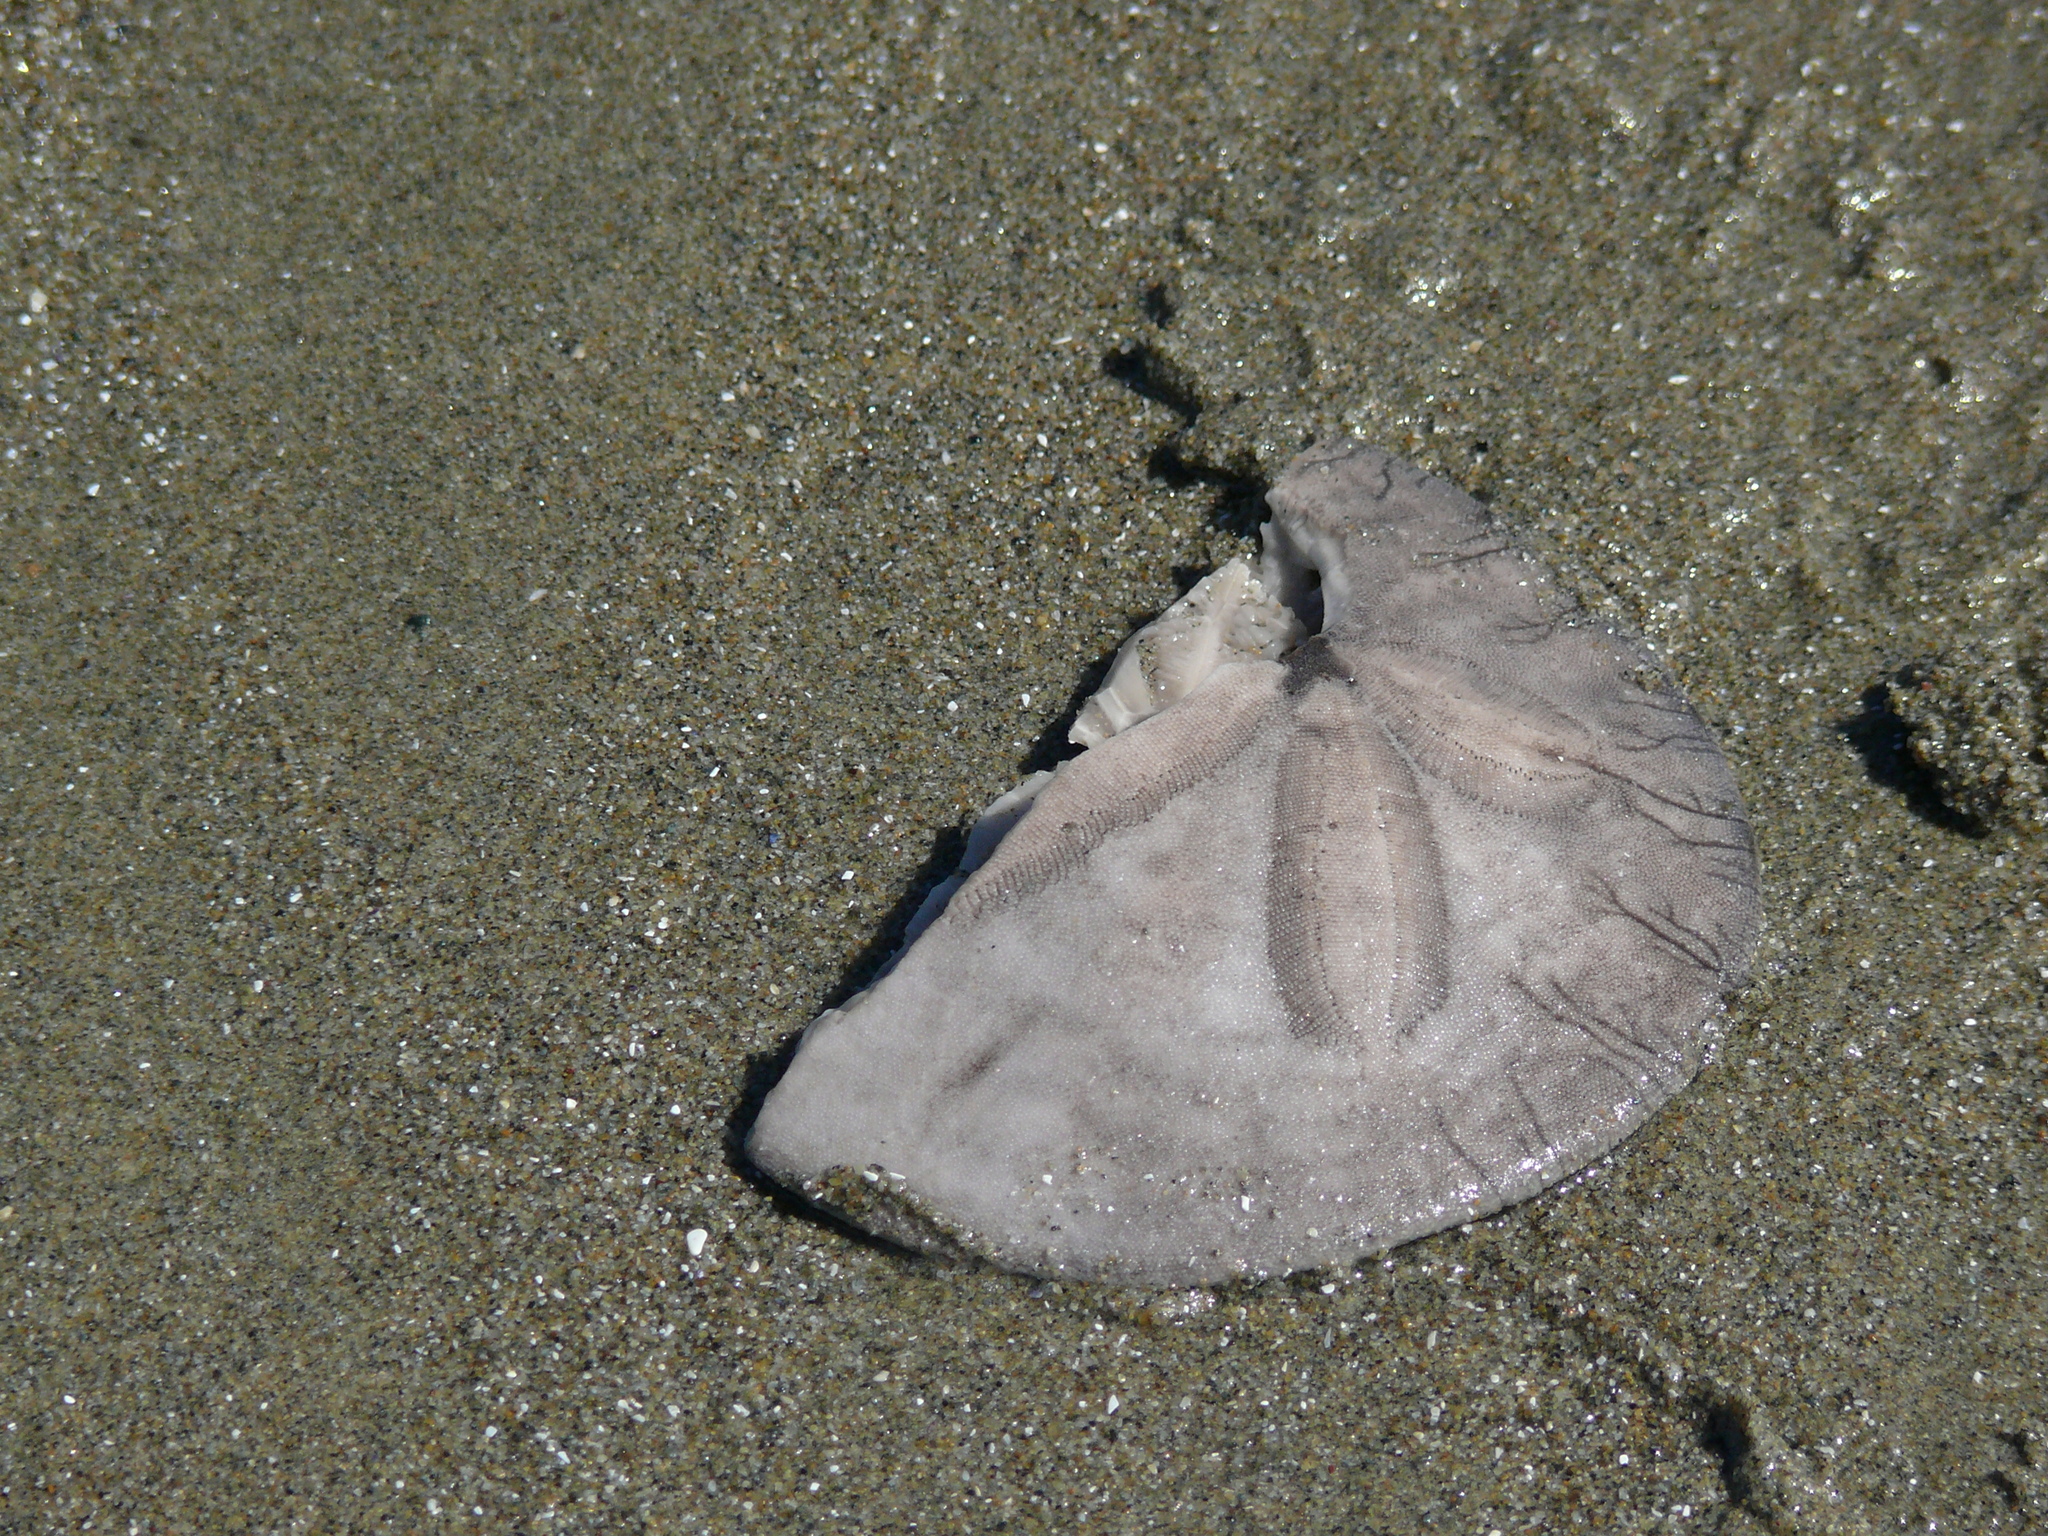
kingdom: Animalia
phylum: Echinodermata
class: Echinoidea
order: Echinolampadacea
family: Dendrasteridae
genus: Dendraster
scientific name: Dendraster excentricus
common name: Eccentric sand dollar sea urchin
